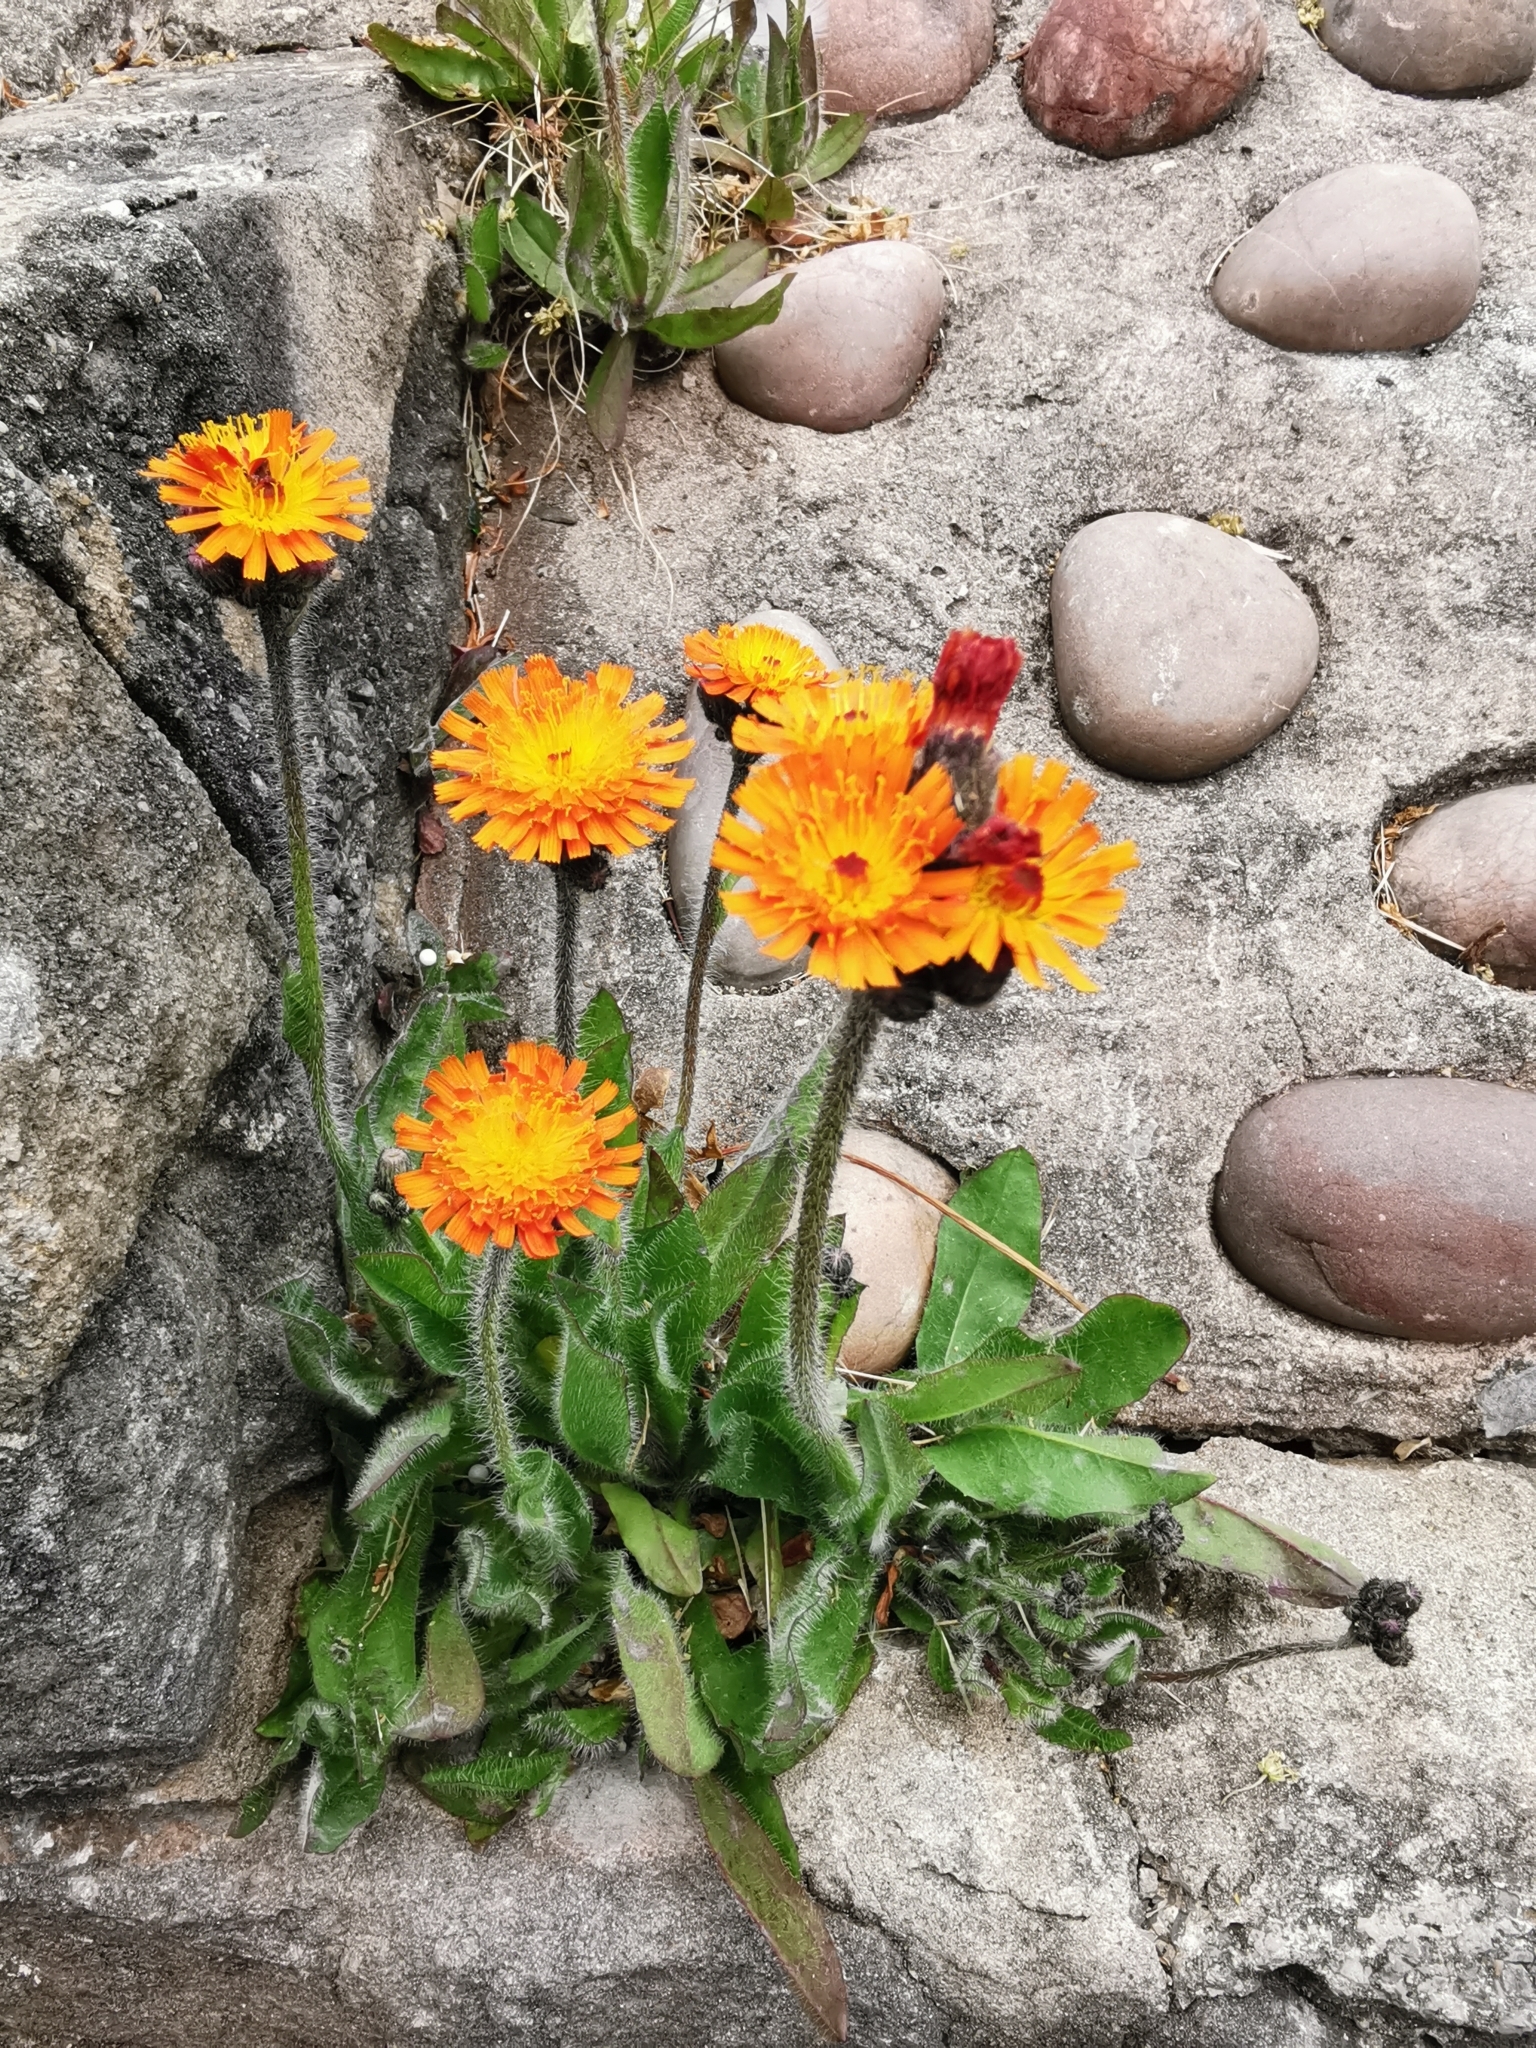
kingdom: Plantae
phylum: Tracheophyta
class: Magnoliopsida
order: Asterales
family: Asteraceae
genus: Pilosella
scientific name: Pilosella aurantiaca
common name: Fox-and-cubs
